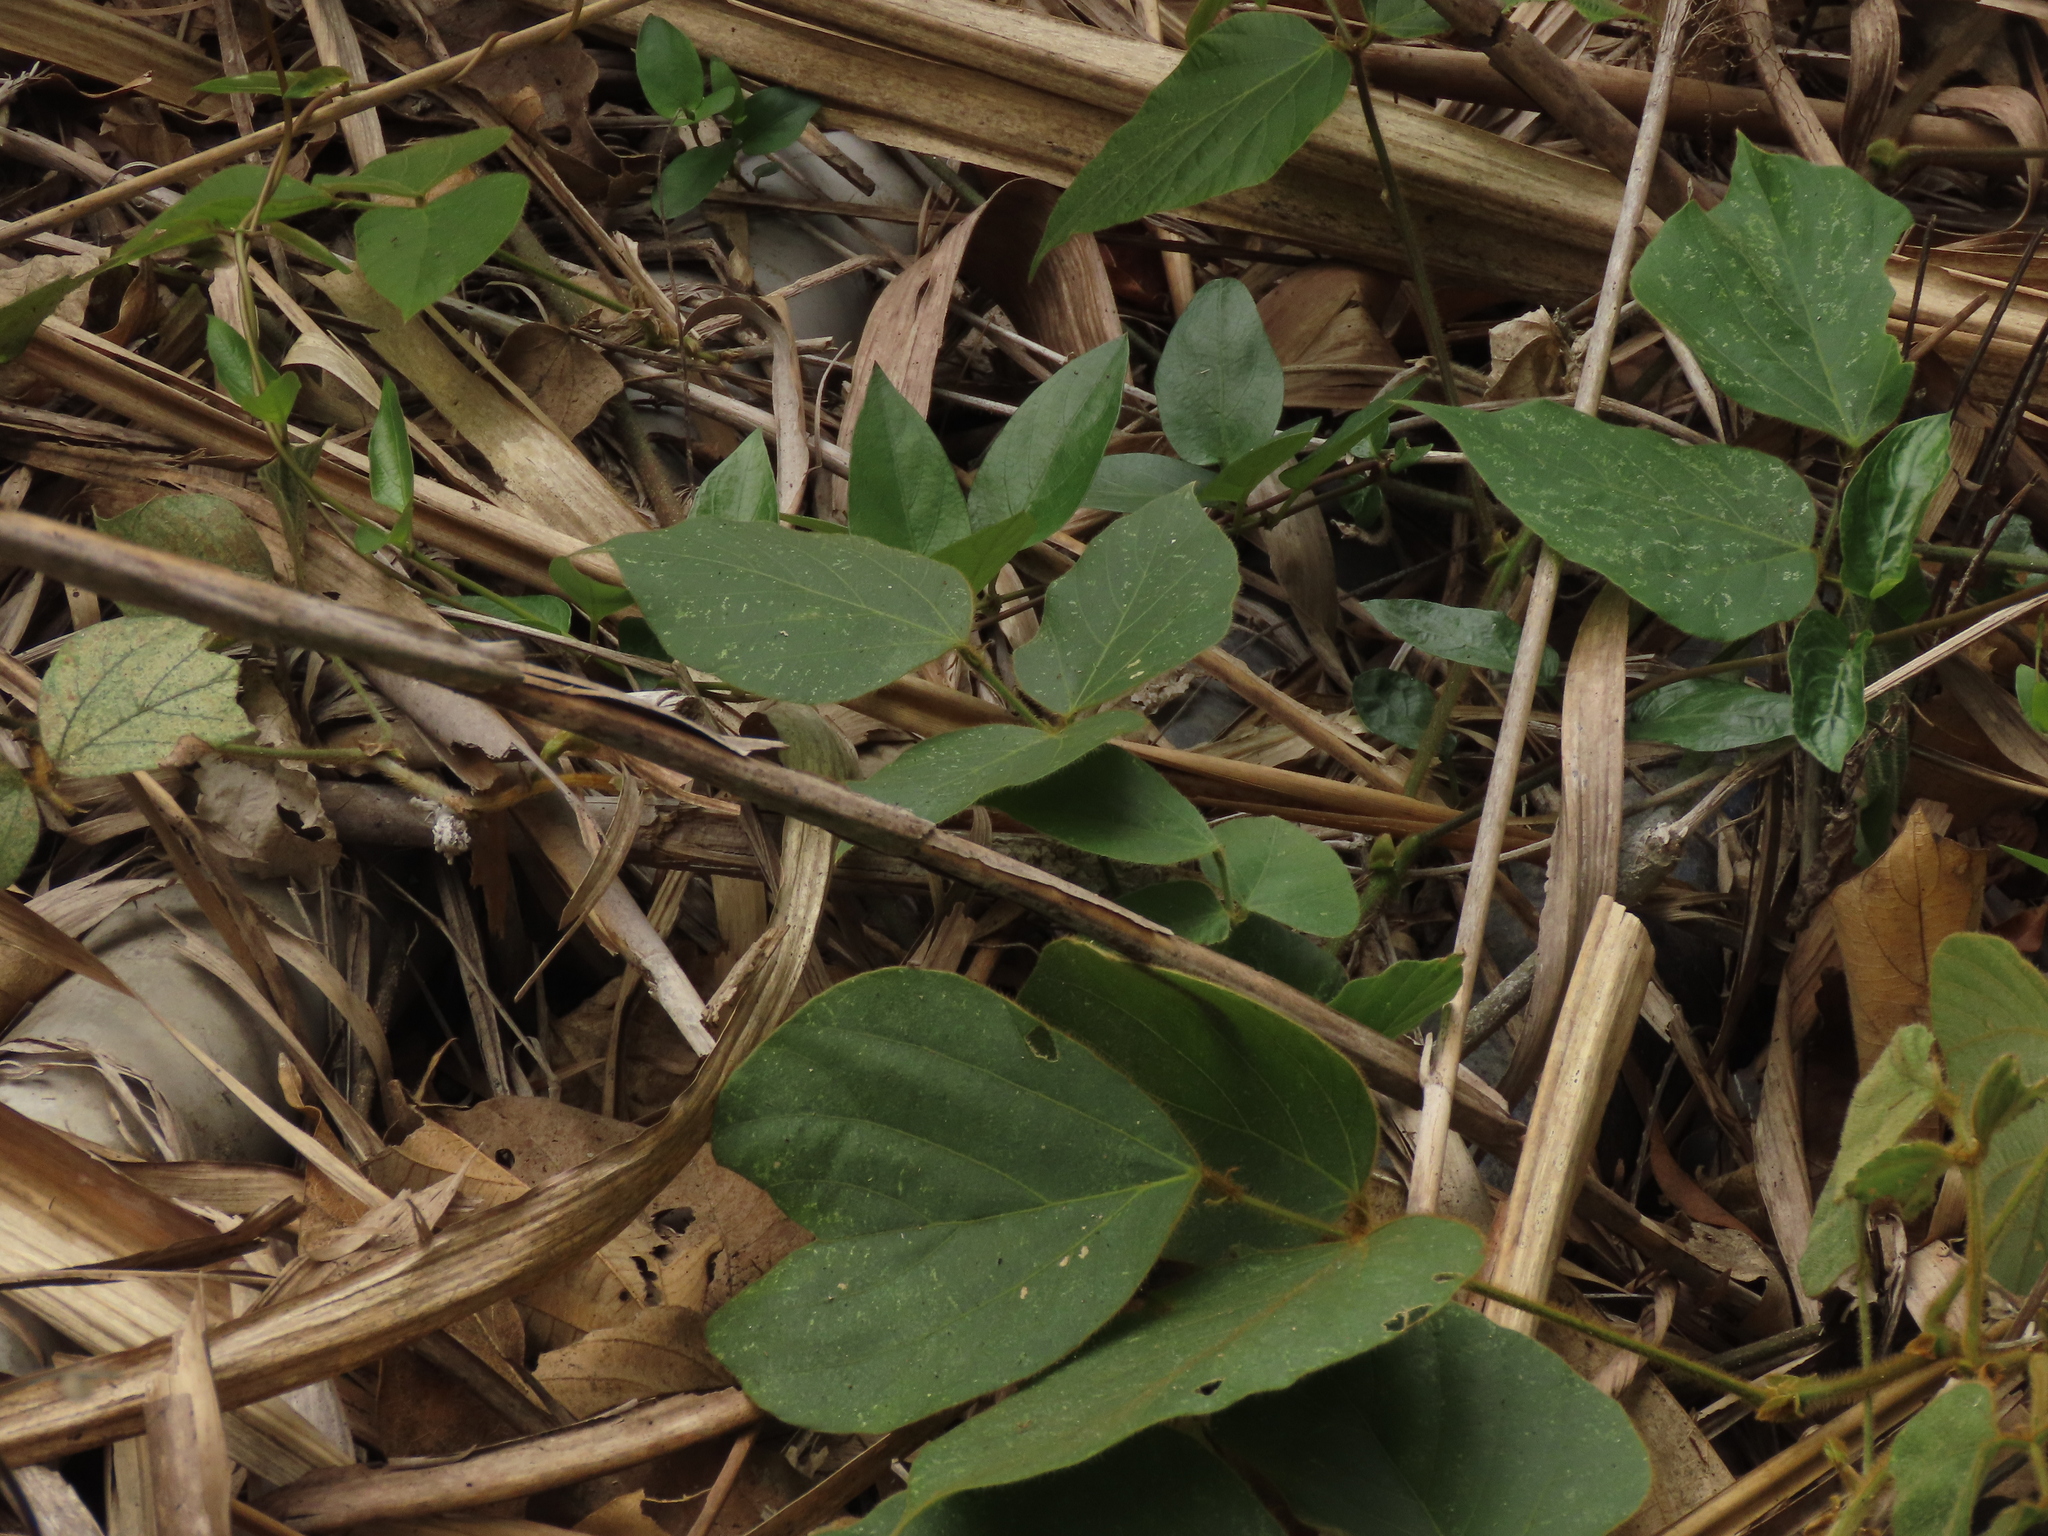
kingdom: Plantae
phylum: Tracheophyta
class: Magnoliopsida
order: Fabales
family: Fabaceae
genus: Pueraria
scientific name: Pueraria montana
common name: Kudzu
